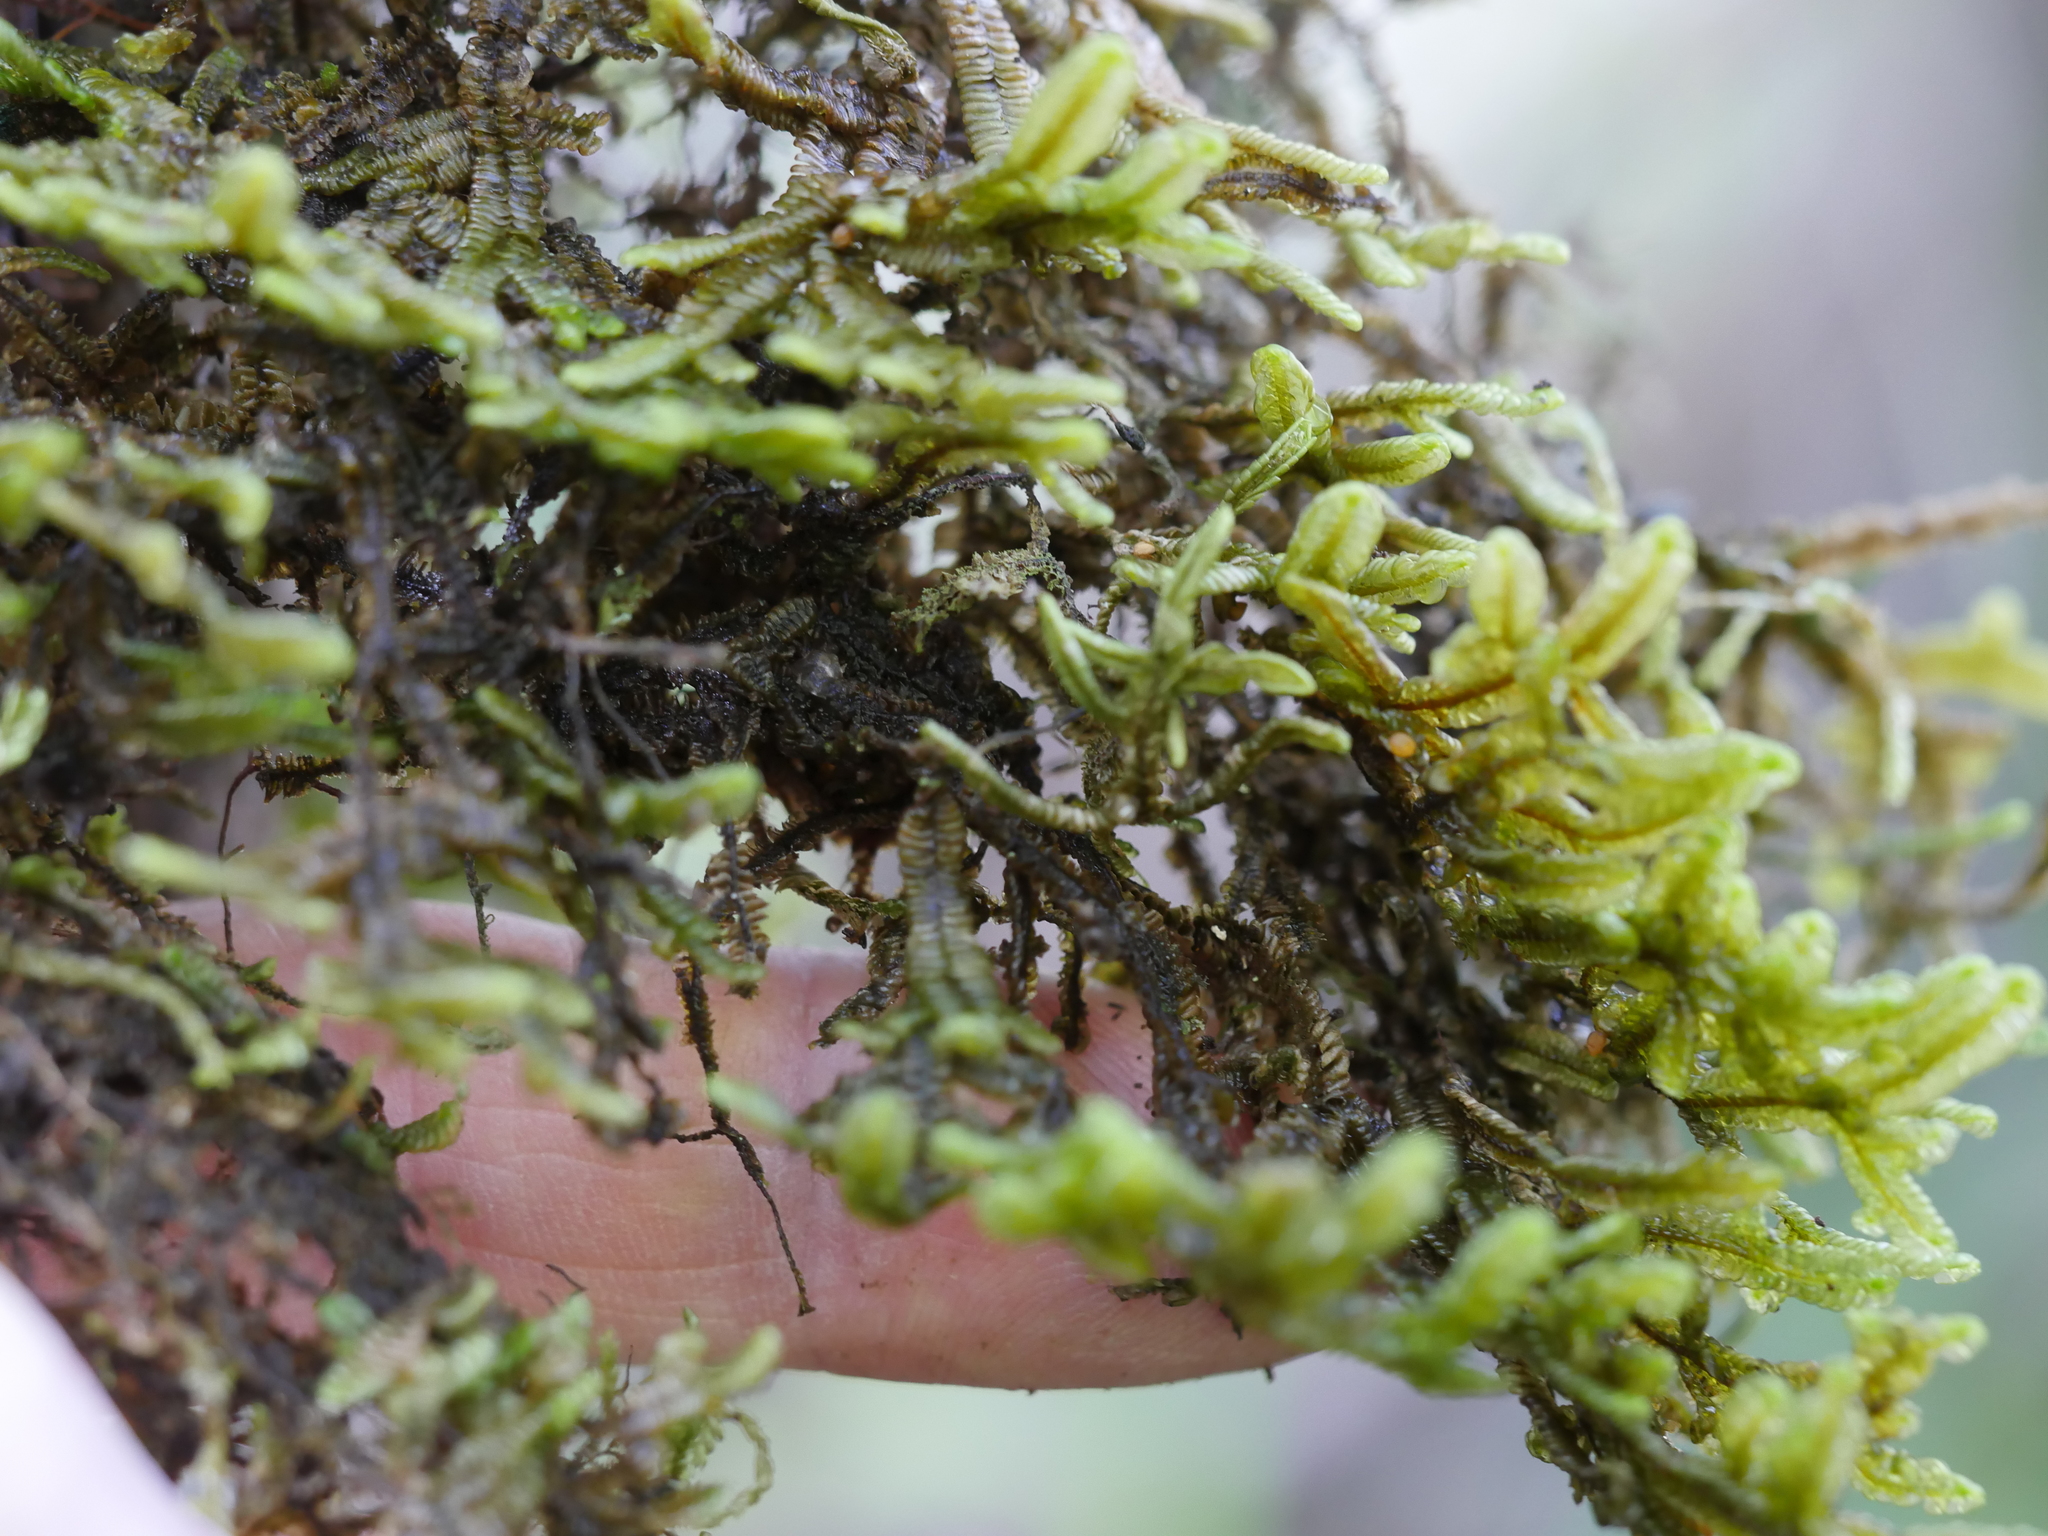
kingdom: Plantae
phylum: Marchantiophyta
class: Jungermanniopsida
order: Porellales
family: Porellaceae
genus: Porella
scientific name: Porella elegantula
